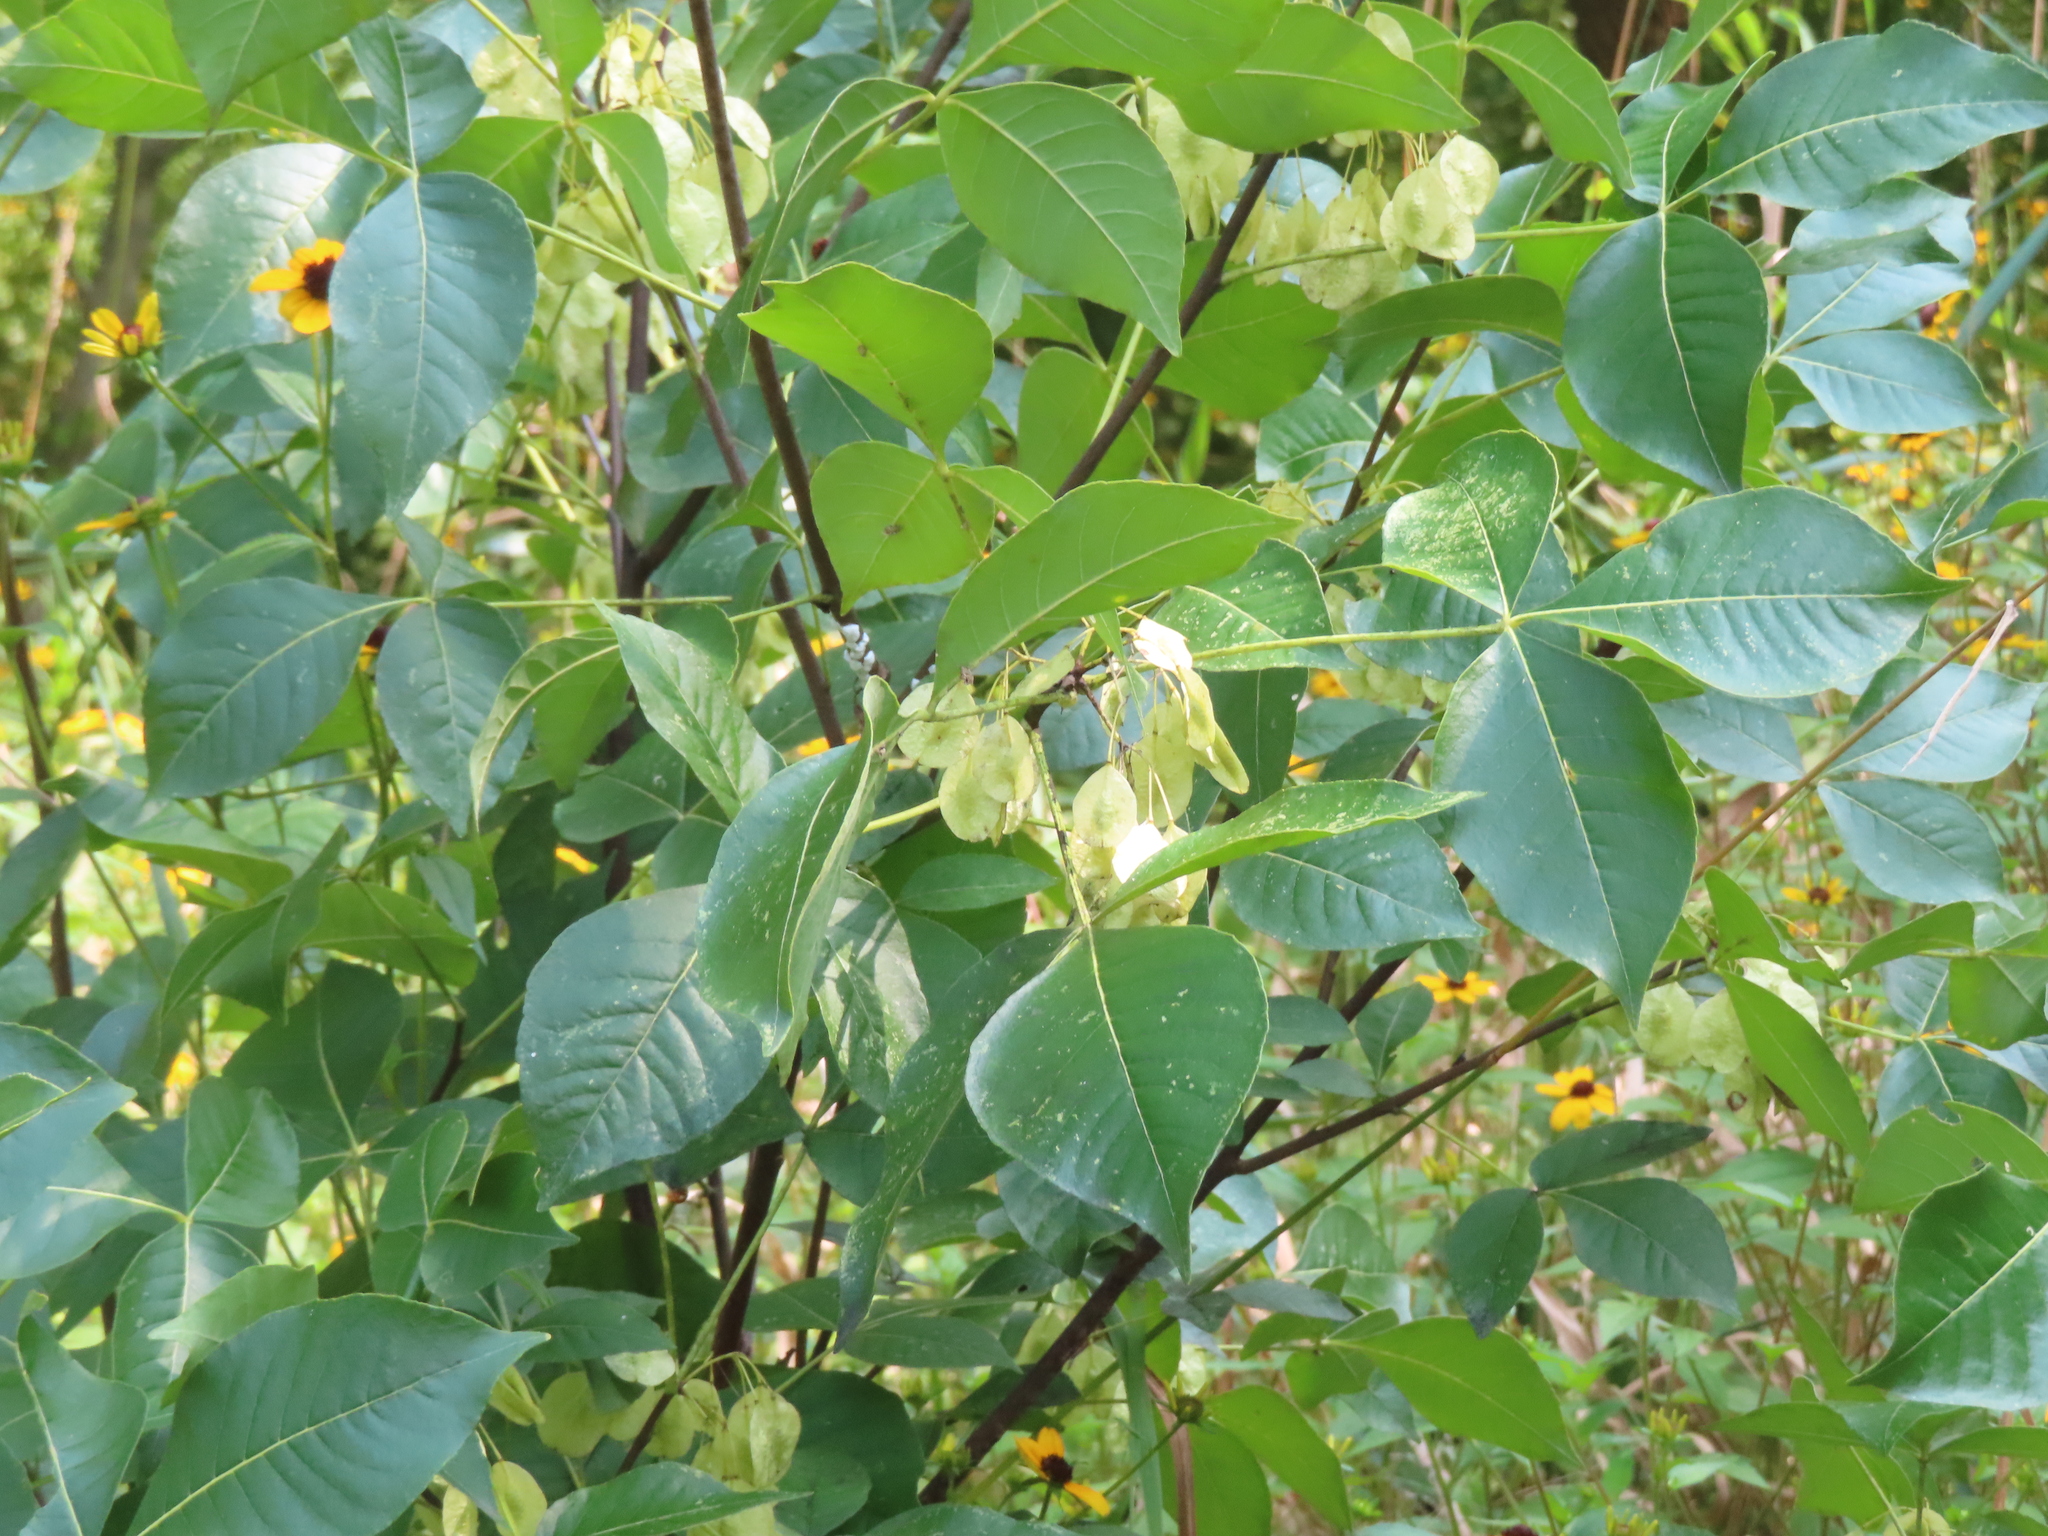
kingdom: Plantae
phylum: Tracheophyta
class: Magnoliopsida
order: Sapindales
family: Rutaceae
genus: Ptelea
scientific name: Ptelea trifoliata
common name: Common hop-tree
